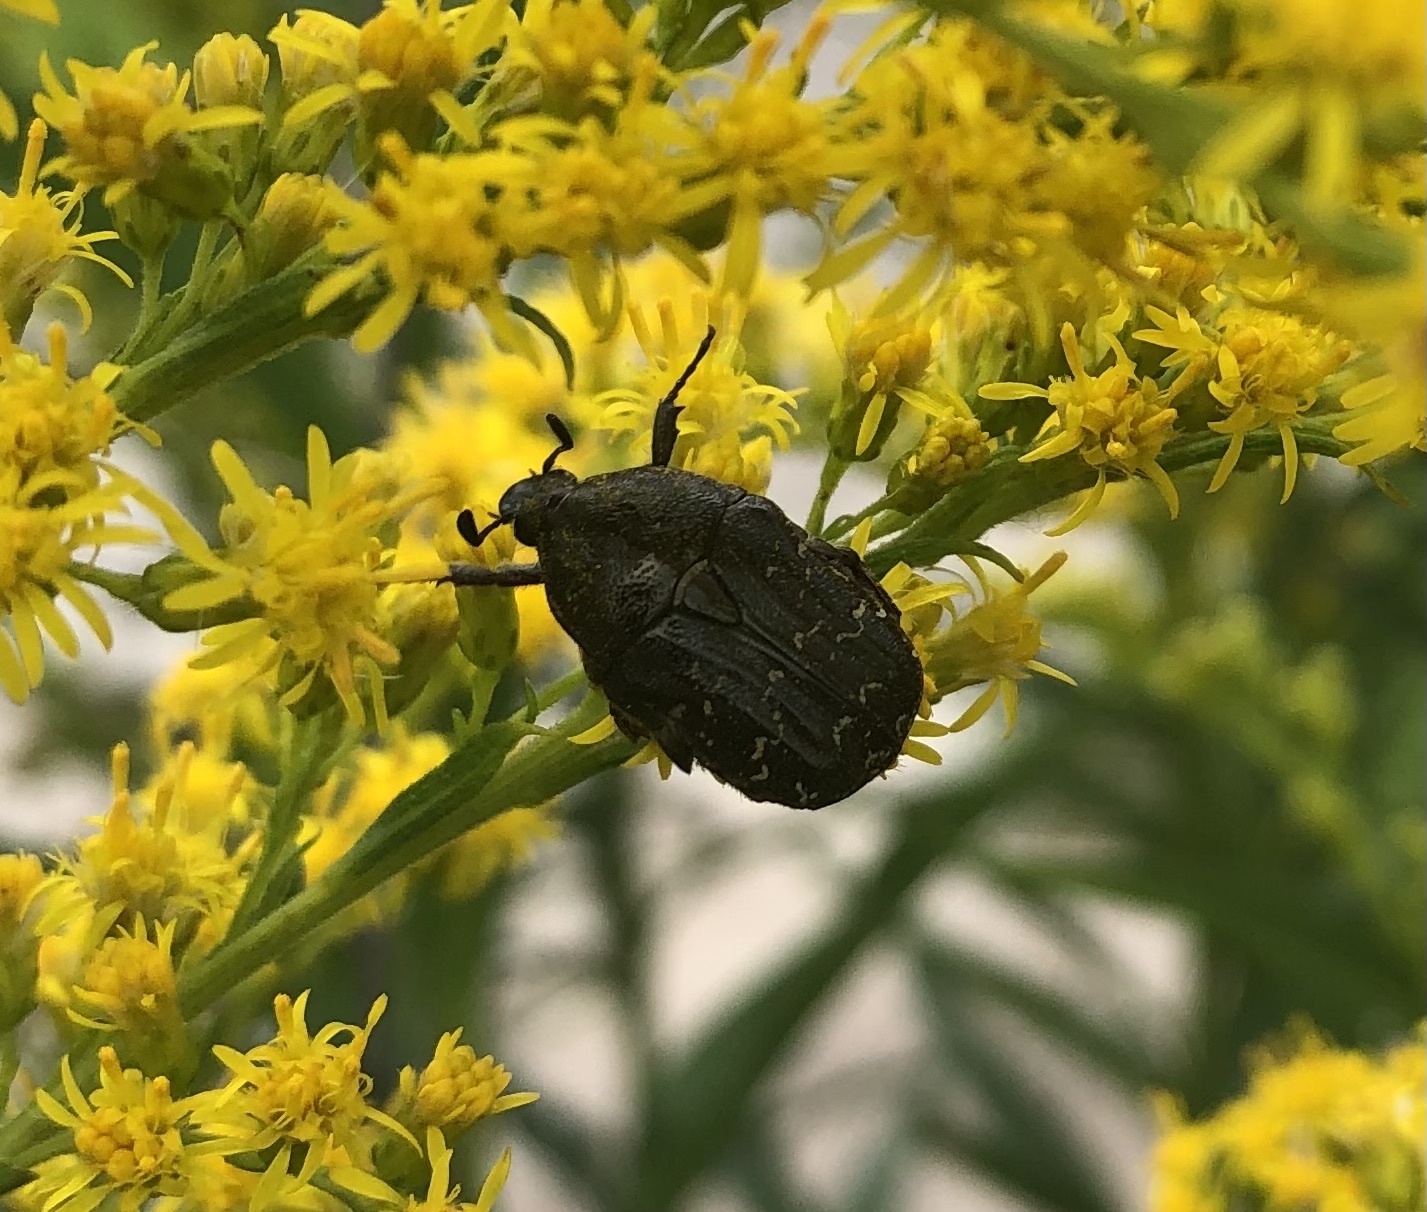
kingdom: Animalia
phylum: Arthropoda
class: Insecta
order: Coleoptera
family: Scarabaeidae
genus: Euphoria
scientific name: Euphoria sepulcralis
